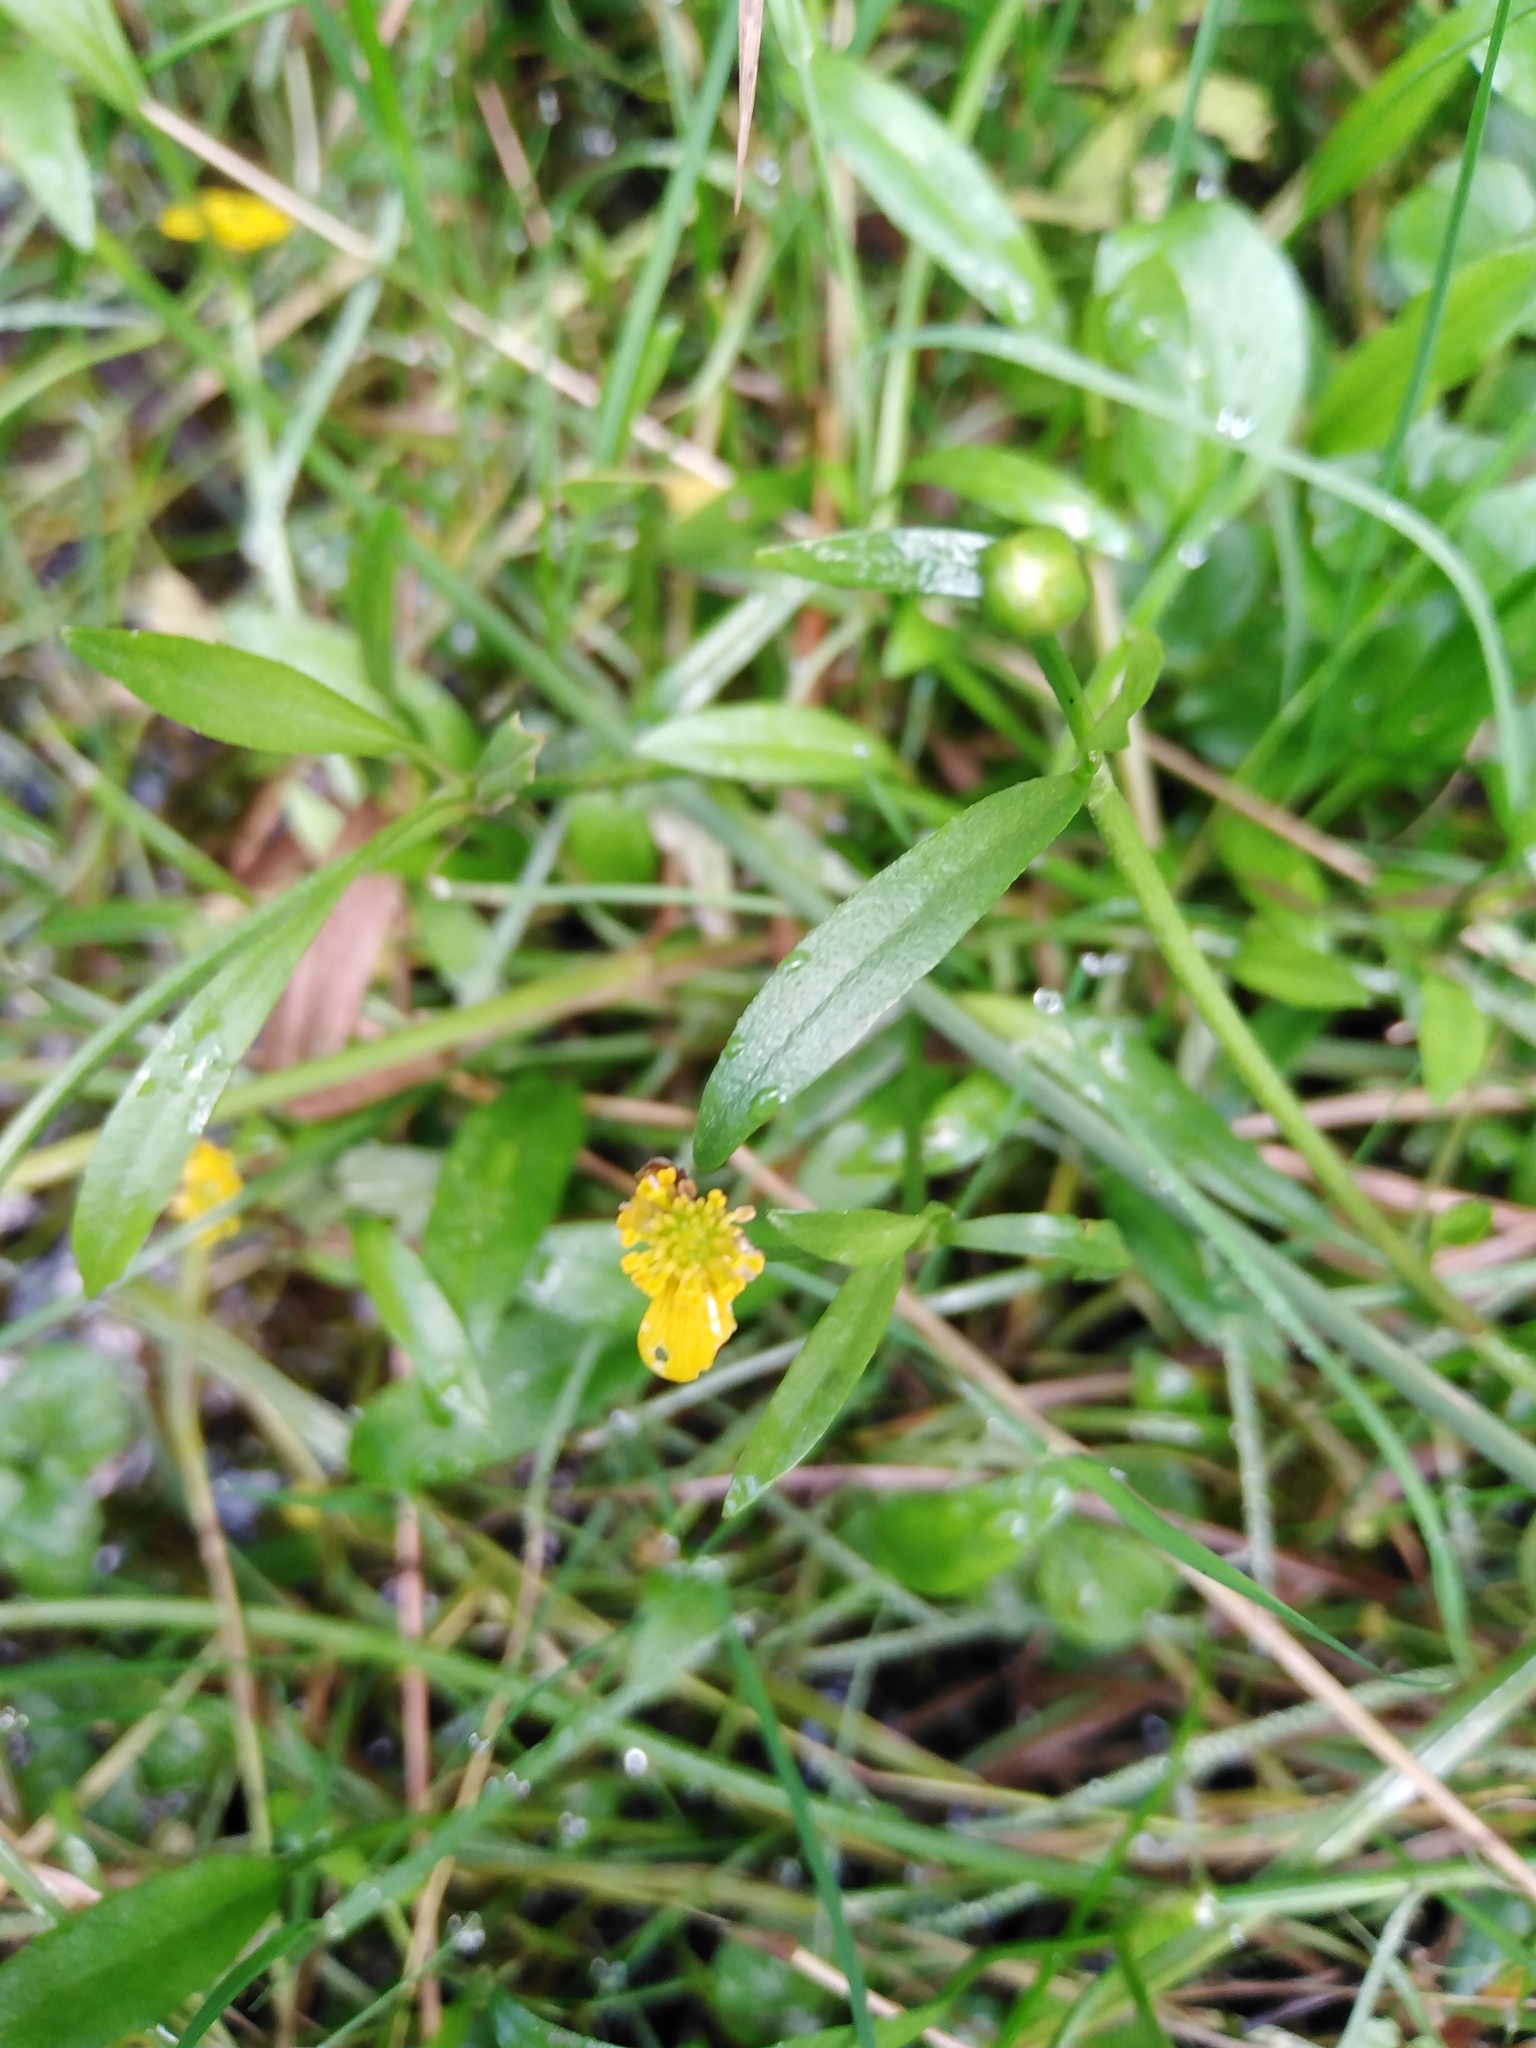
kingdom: Plantae
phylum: Tracheophyta
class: Magnoliopsida
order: Ranunculales
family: Ranunculaceae
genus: Ranunculus
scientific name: Ranunculus flammula
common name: Lesser spearwort
